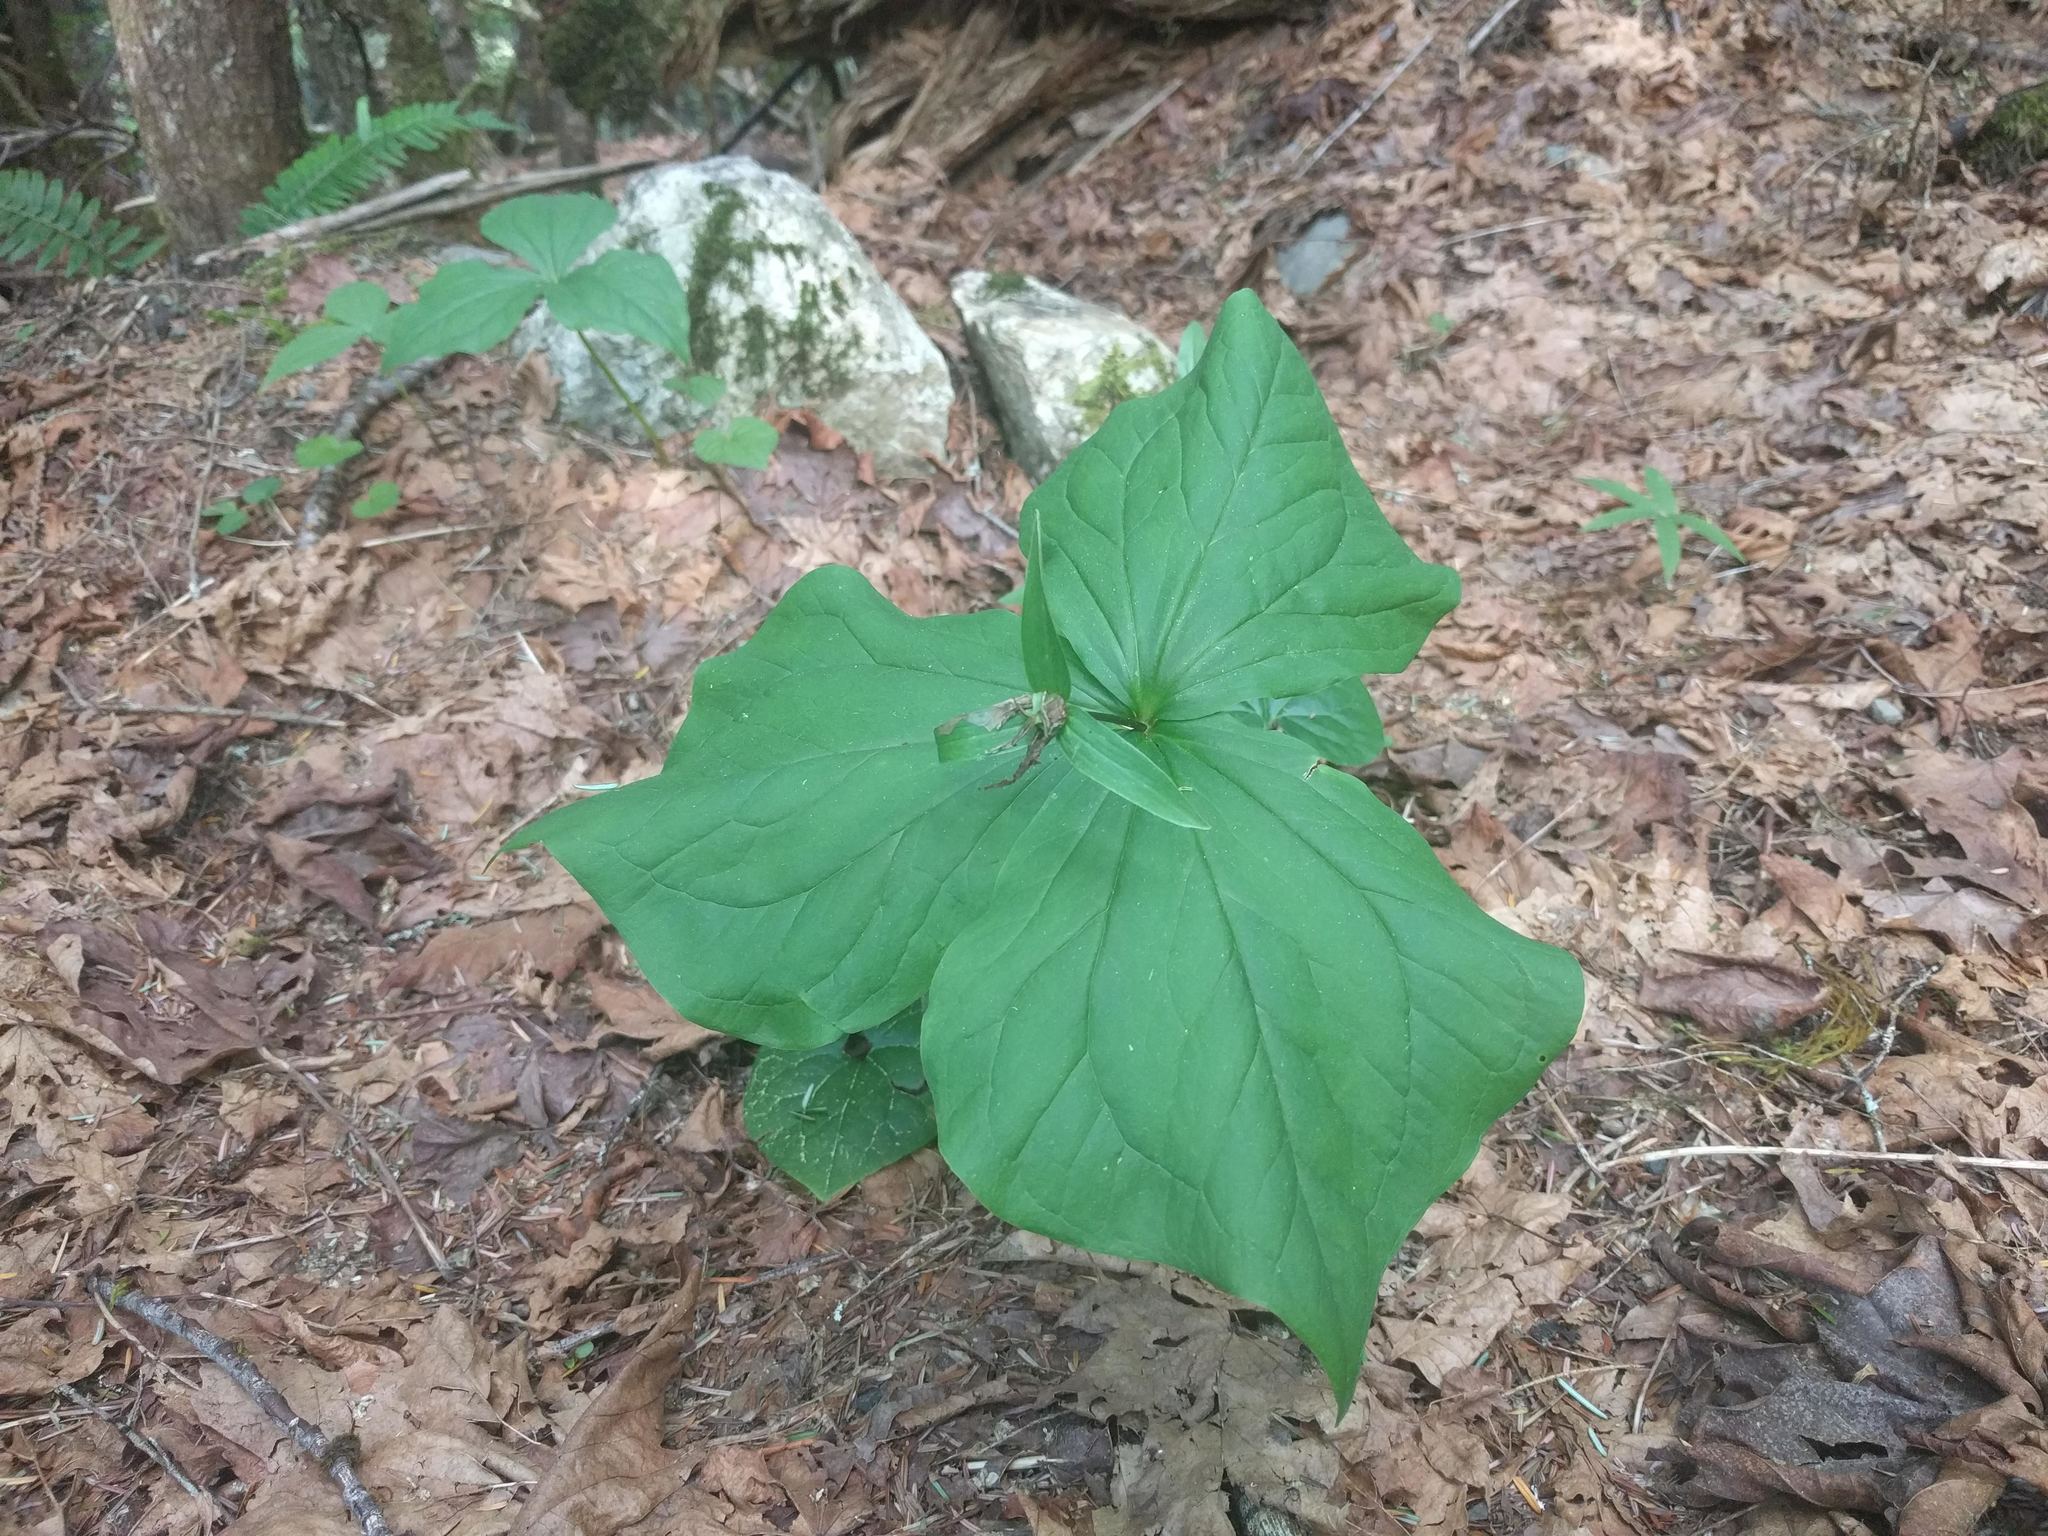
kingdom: Plantae
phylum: Tracheophyta
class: Liliopsida
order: Liliales
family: Melanthiaceae
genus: Trillium
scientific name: Trillium ovatum
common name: Pacific trillium
